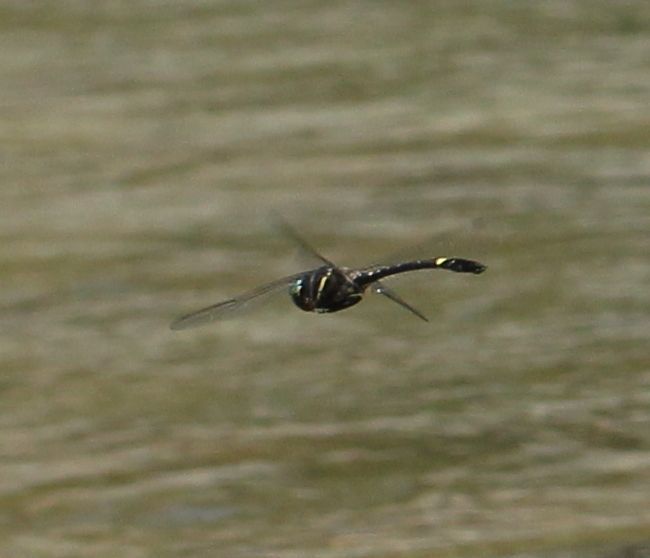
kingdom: Animalia
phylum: Arthropoda
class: Insecta
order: Odonata
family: Macromiidae
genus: Macromia
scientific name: Macromia illinoiensis
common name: Swift river cruiser
